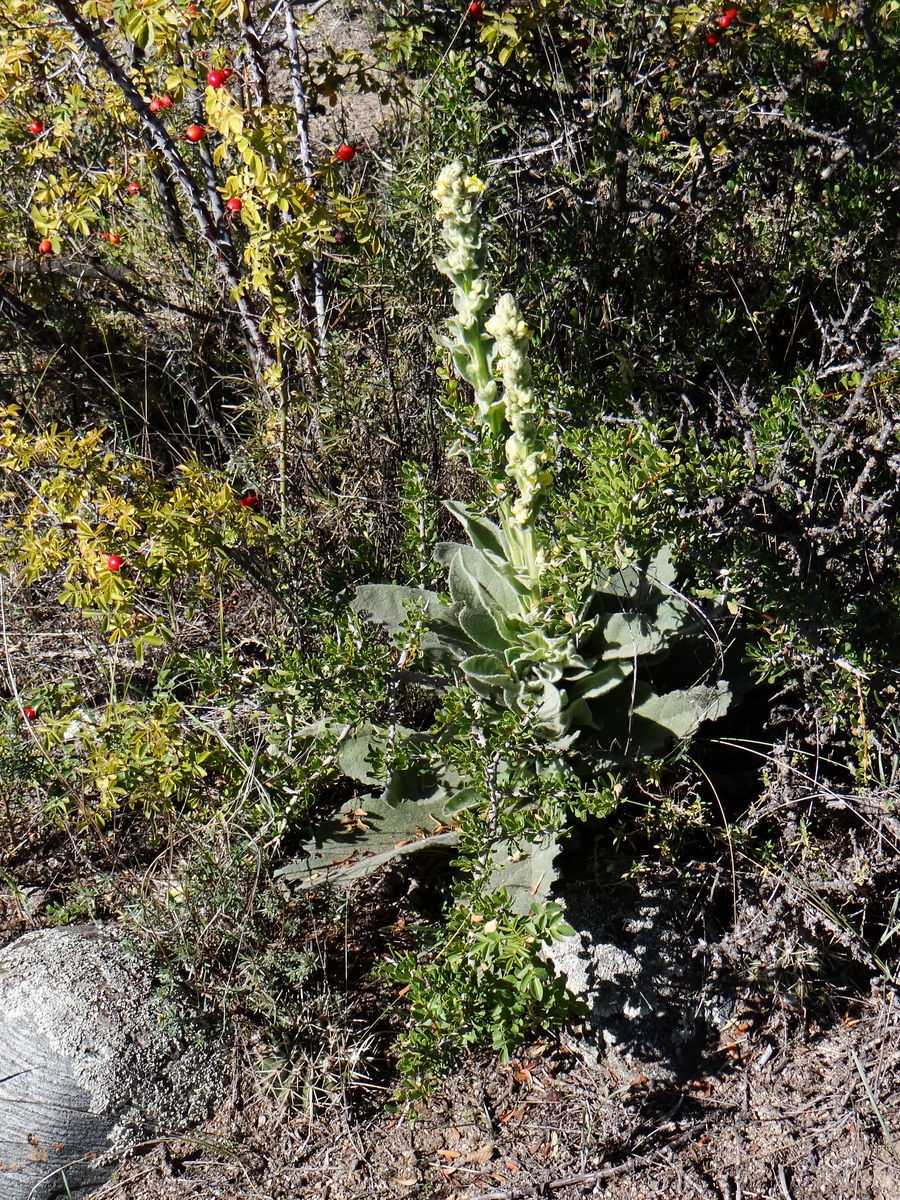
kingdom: Plantae
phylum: Tracheophyta
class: Magnoliopsida
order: Lamiales
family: Scrophulariaceae
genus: Verbascum
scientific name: Verbascum thapsus
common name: Common mullein
